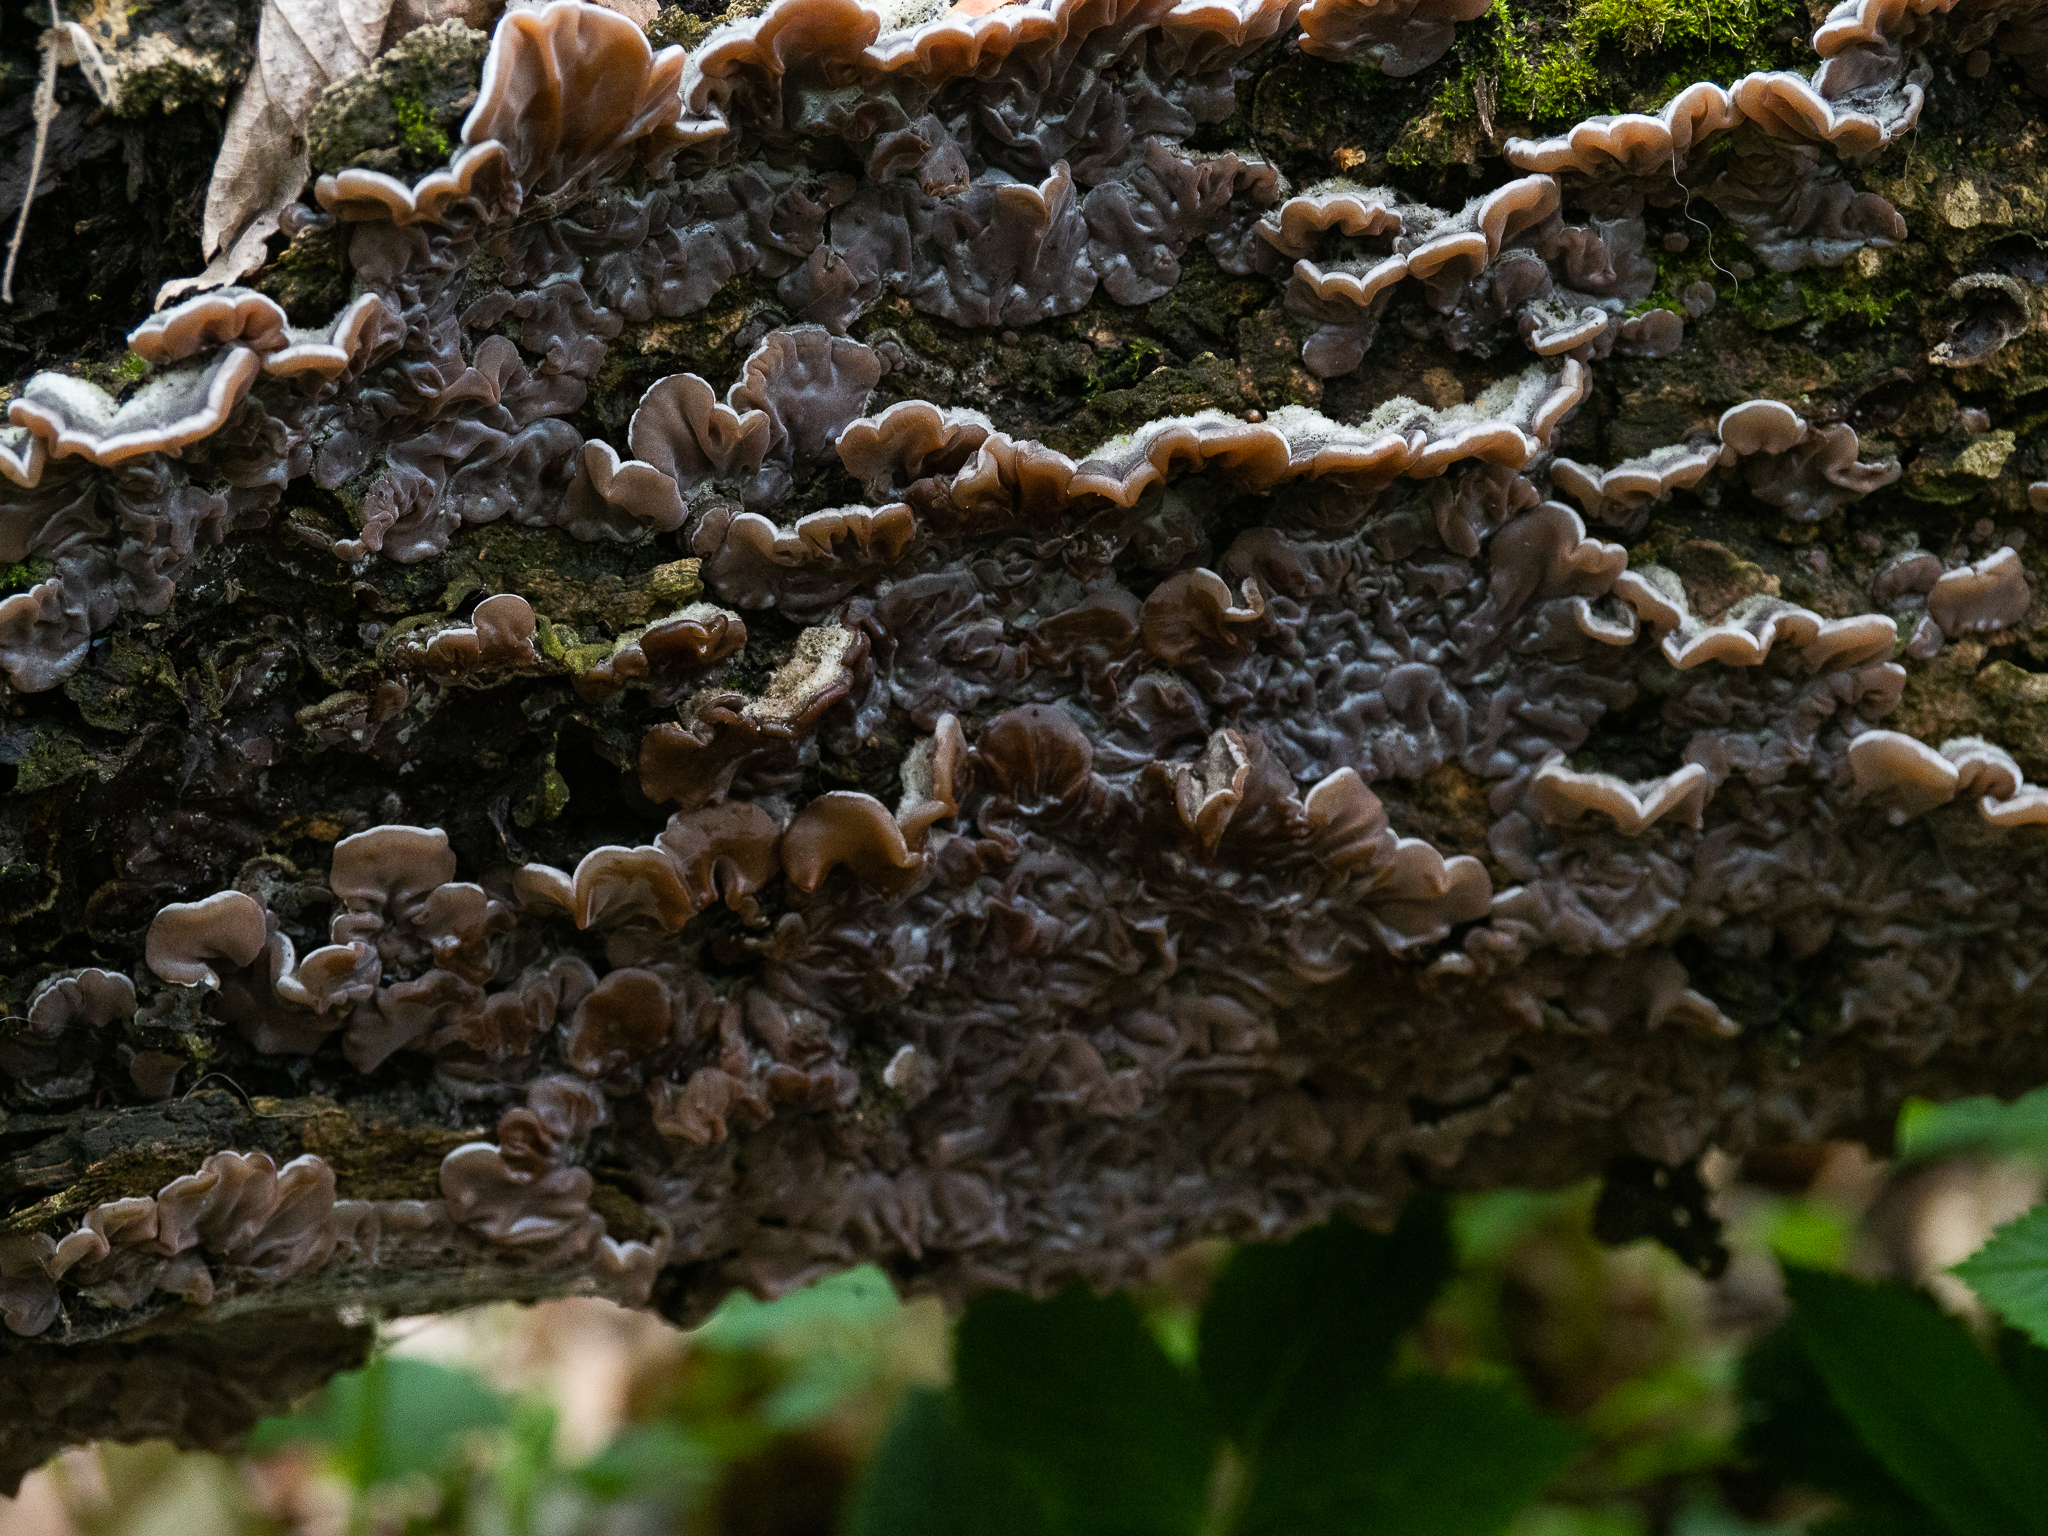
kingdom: Fungi
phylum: Basidiomycota
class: Agaricomycetes
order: Auriculariales
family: Auriculariaceae
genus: Auricularia
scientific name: Auricularia mesenterica
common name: Tripe fungus
